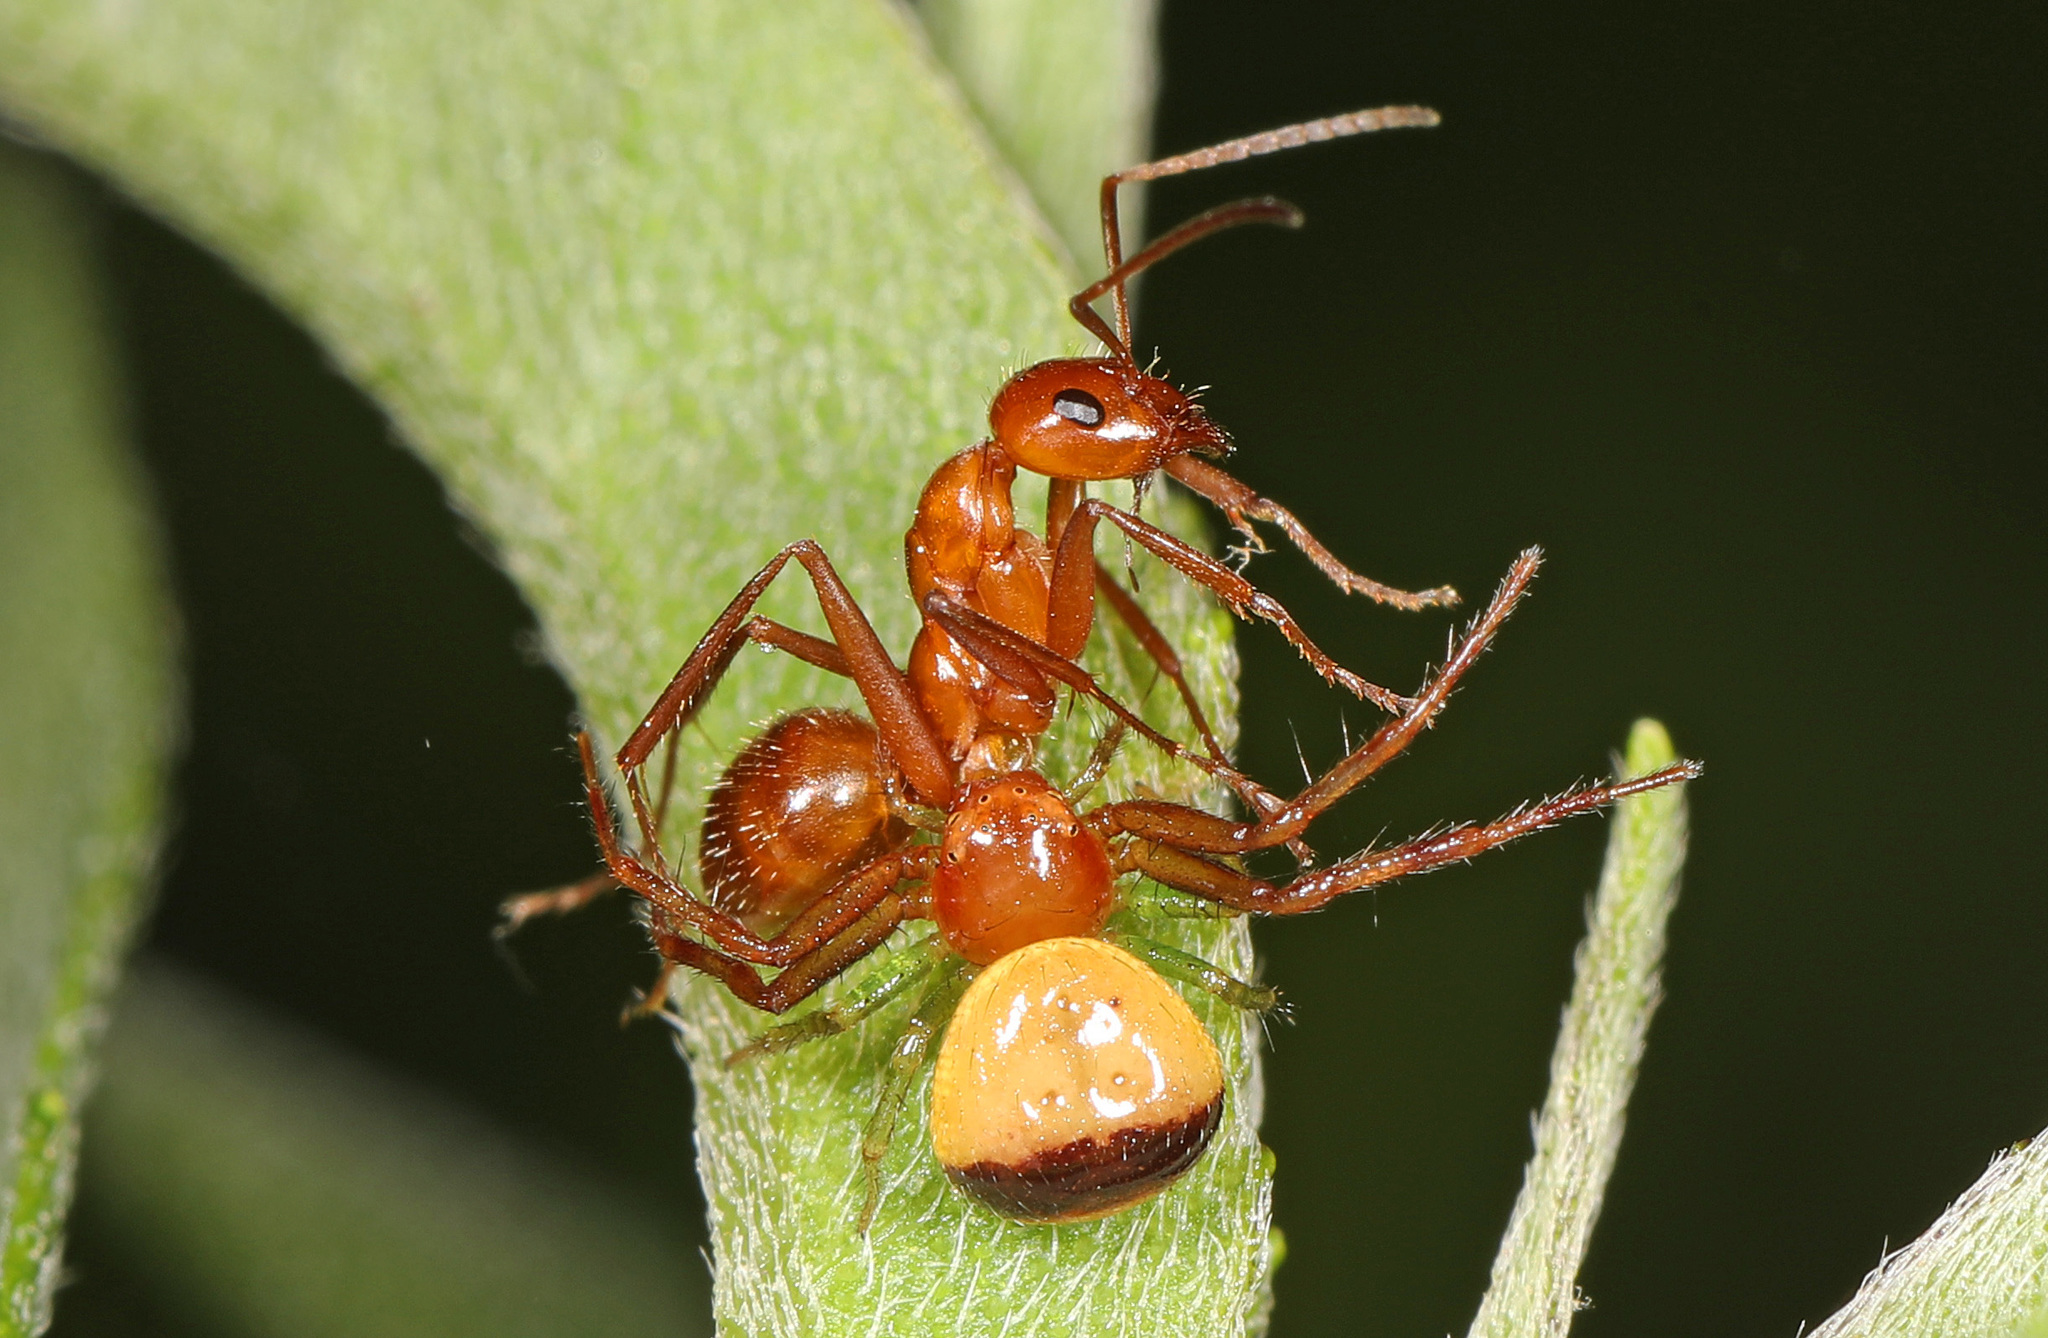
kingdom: Animalia
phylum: Arthropoda
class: Arachnida
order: Araneae
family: Thomisidae
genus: Synema
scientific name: Synema parvulum
